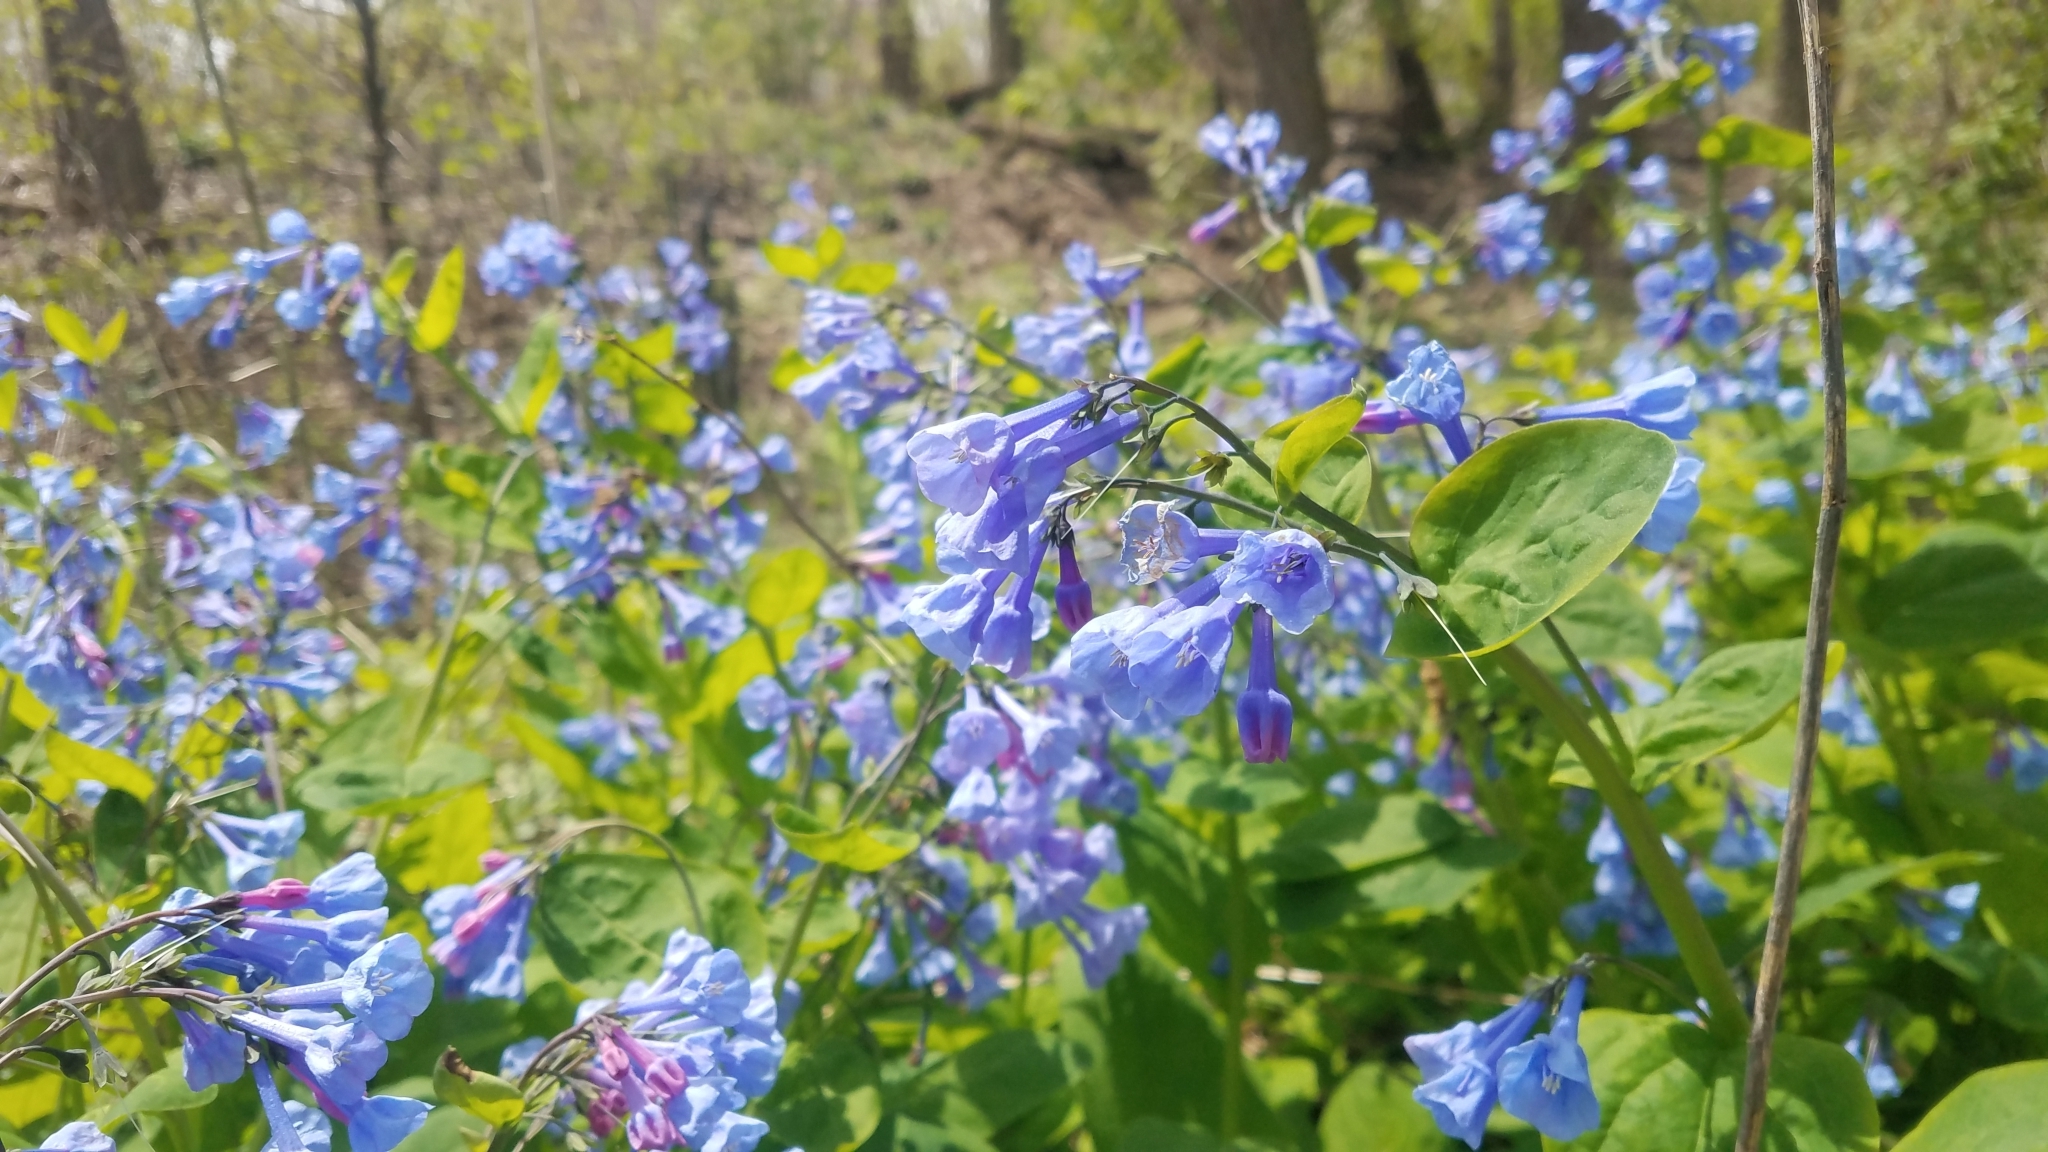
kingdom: Plantae
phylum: Tracheophyta
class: Magnoliopsida
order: Boraginales
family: Boraginaceae
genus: Mertensia
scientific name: Mertensia virginica
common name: Virginia bluebells
